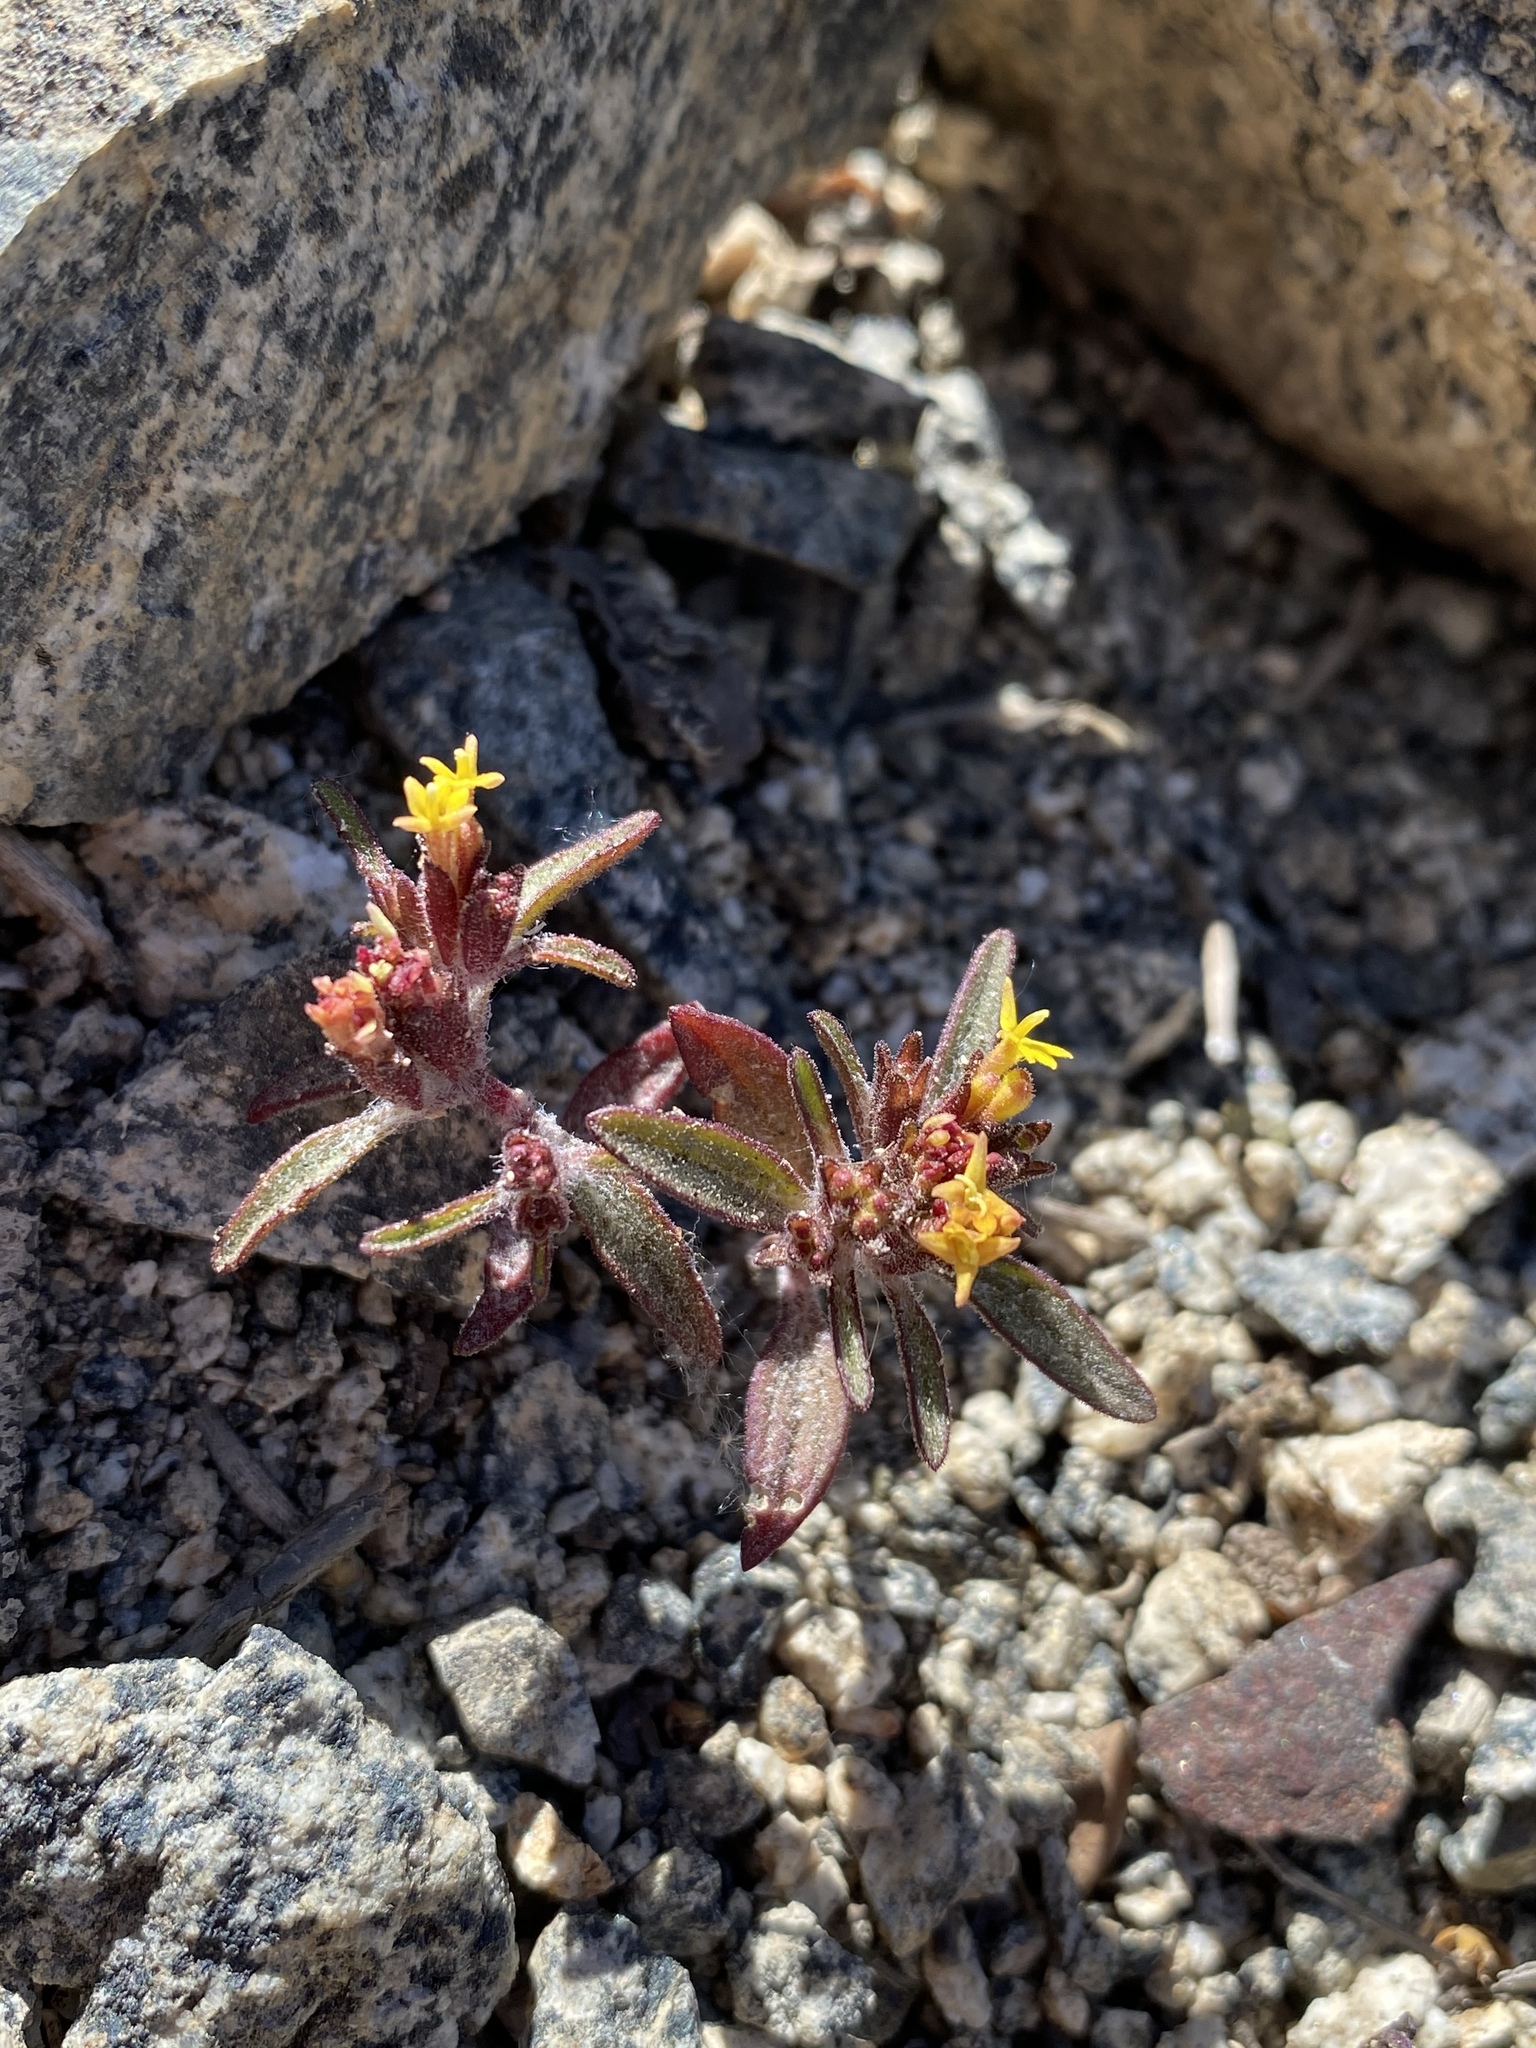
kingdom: Plantae
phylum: Tracheophyta
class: Magnoliopsida
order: Asterales
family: Asteraceae
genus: Orochaenactis
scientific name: Orochaenactis thysanocarpha
